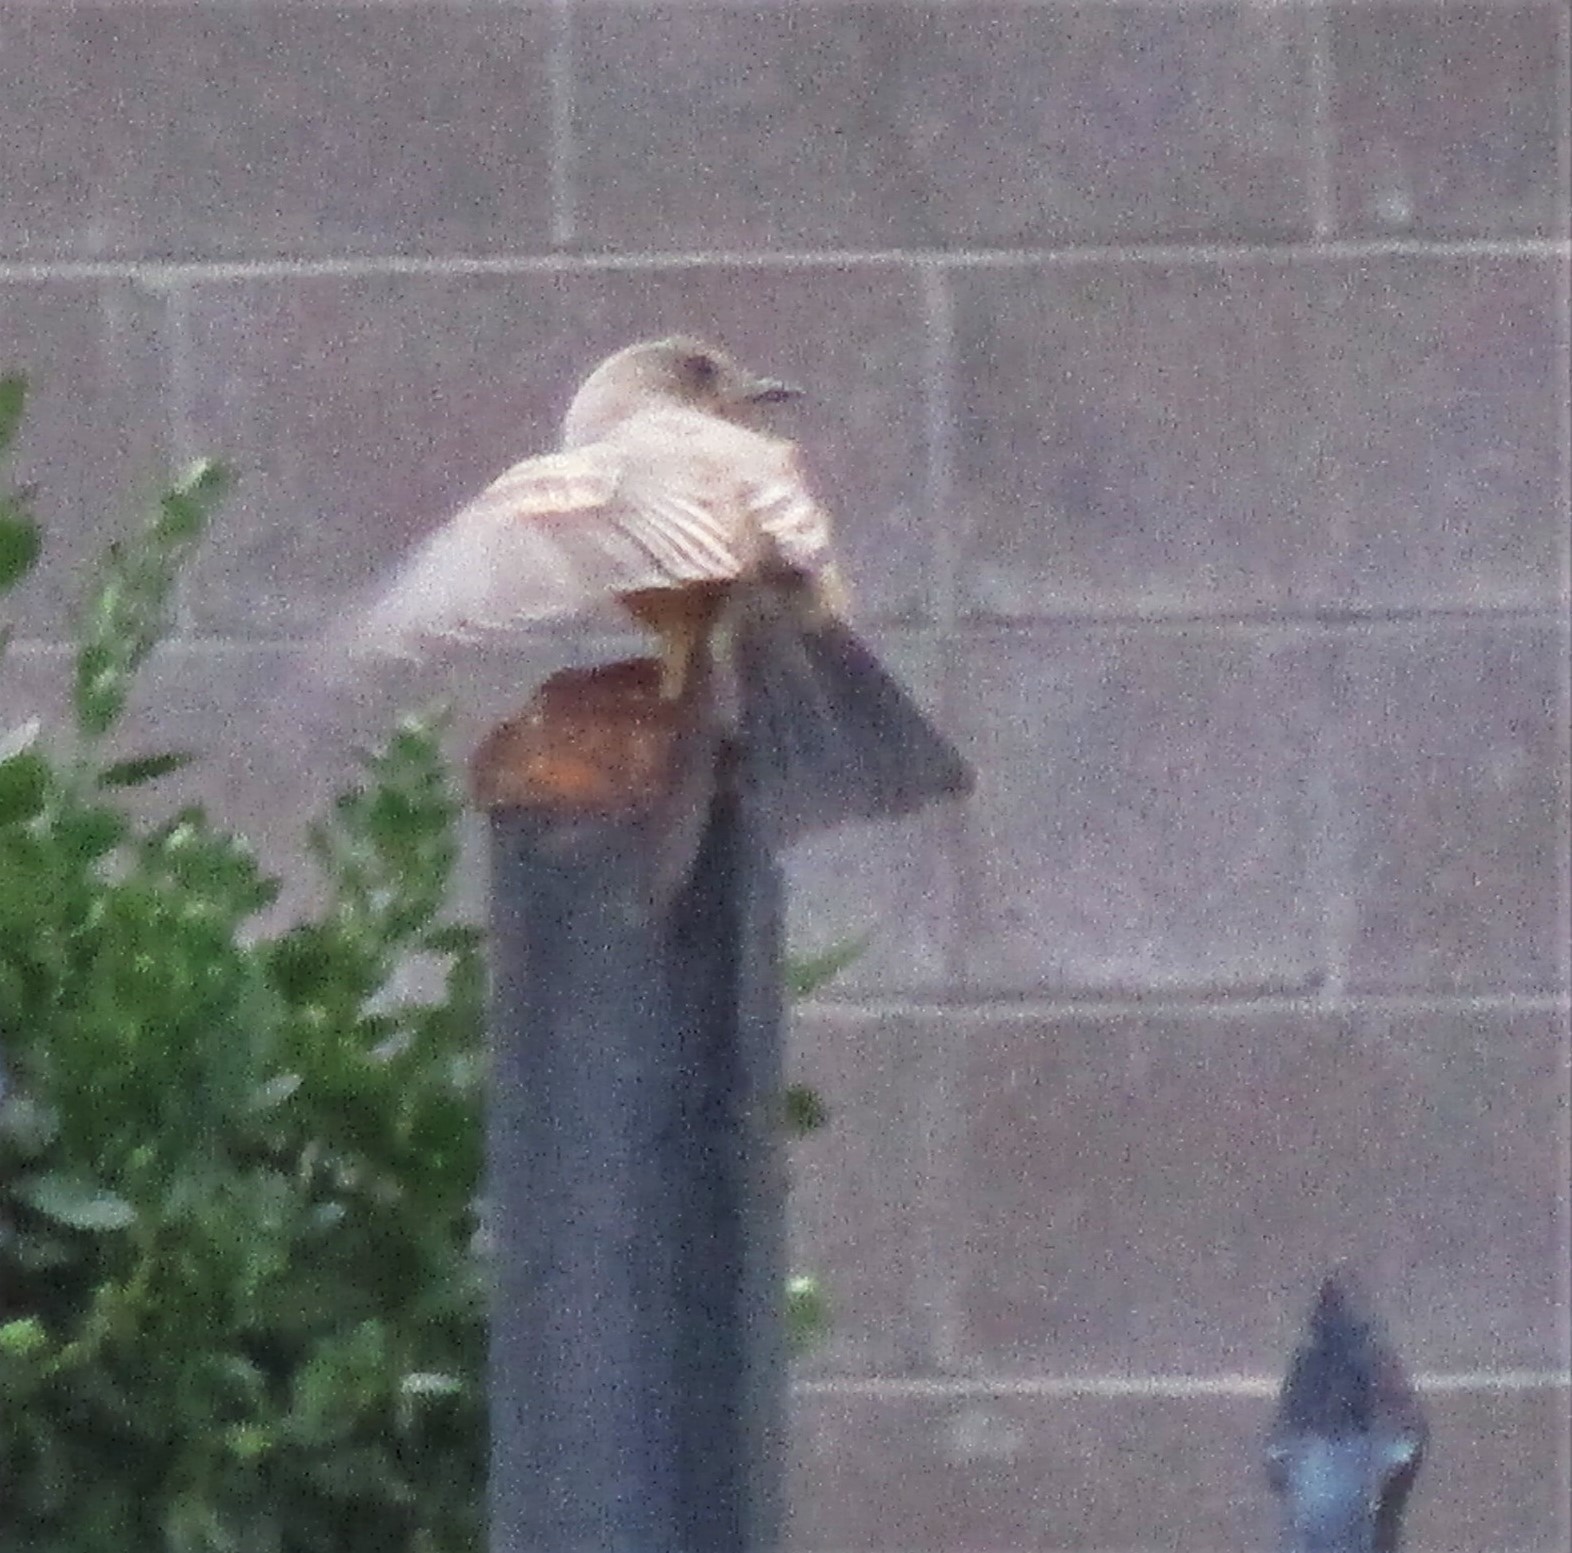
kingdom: Animalia
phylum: Chordata
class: Aves
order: Passeriformes
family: Tyrannidae
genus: Sayornis
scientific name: Sayornis saya
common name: Say's phoebe
